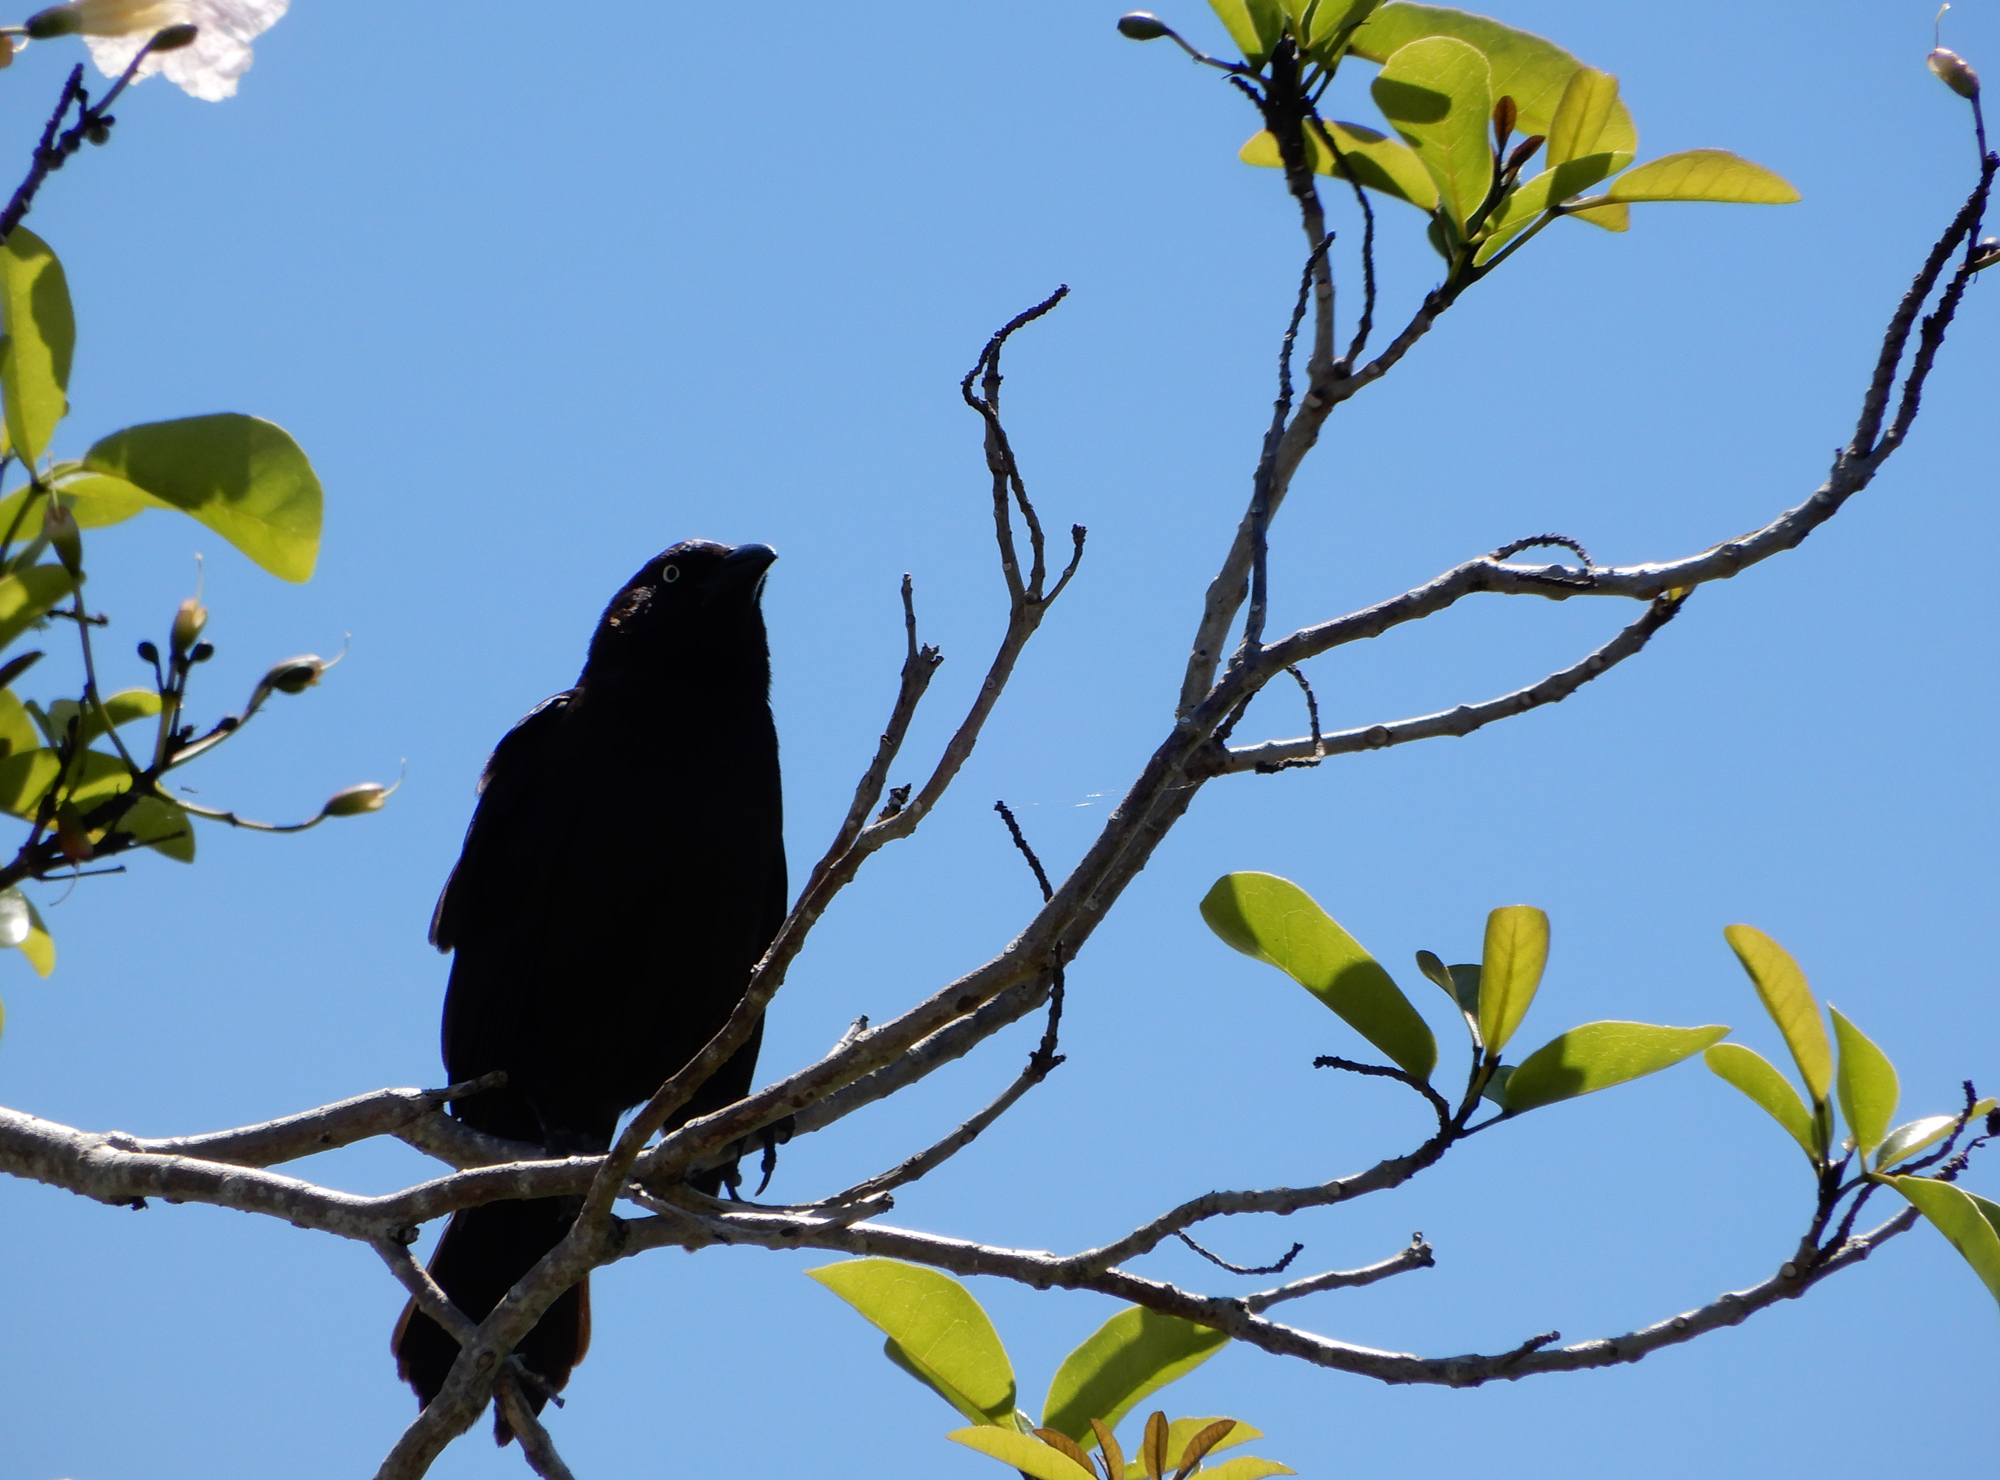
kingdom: Animalia
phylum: Chordata
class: Aves
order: Passeriformes
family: Icteridae
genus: Quiscalus
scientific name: Quiscalus quiscula
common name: Common grackle
